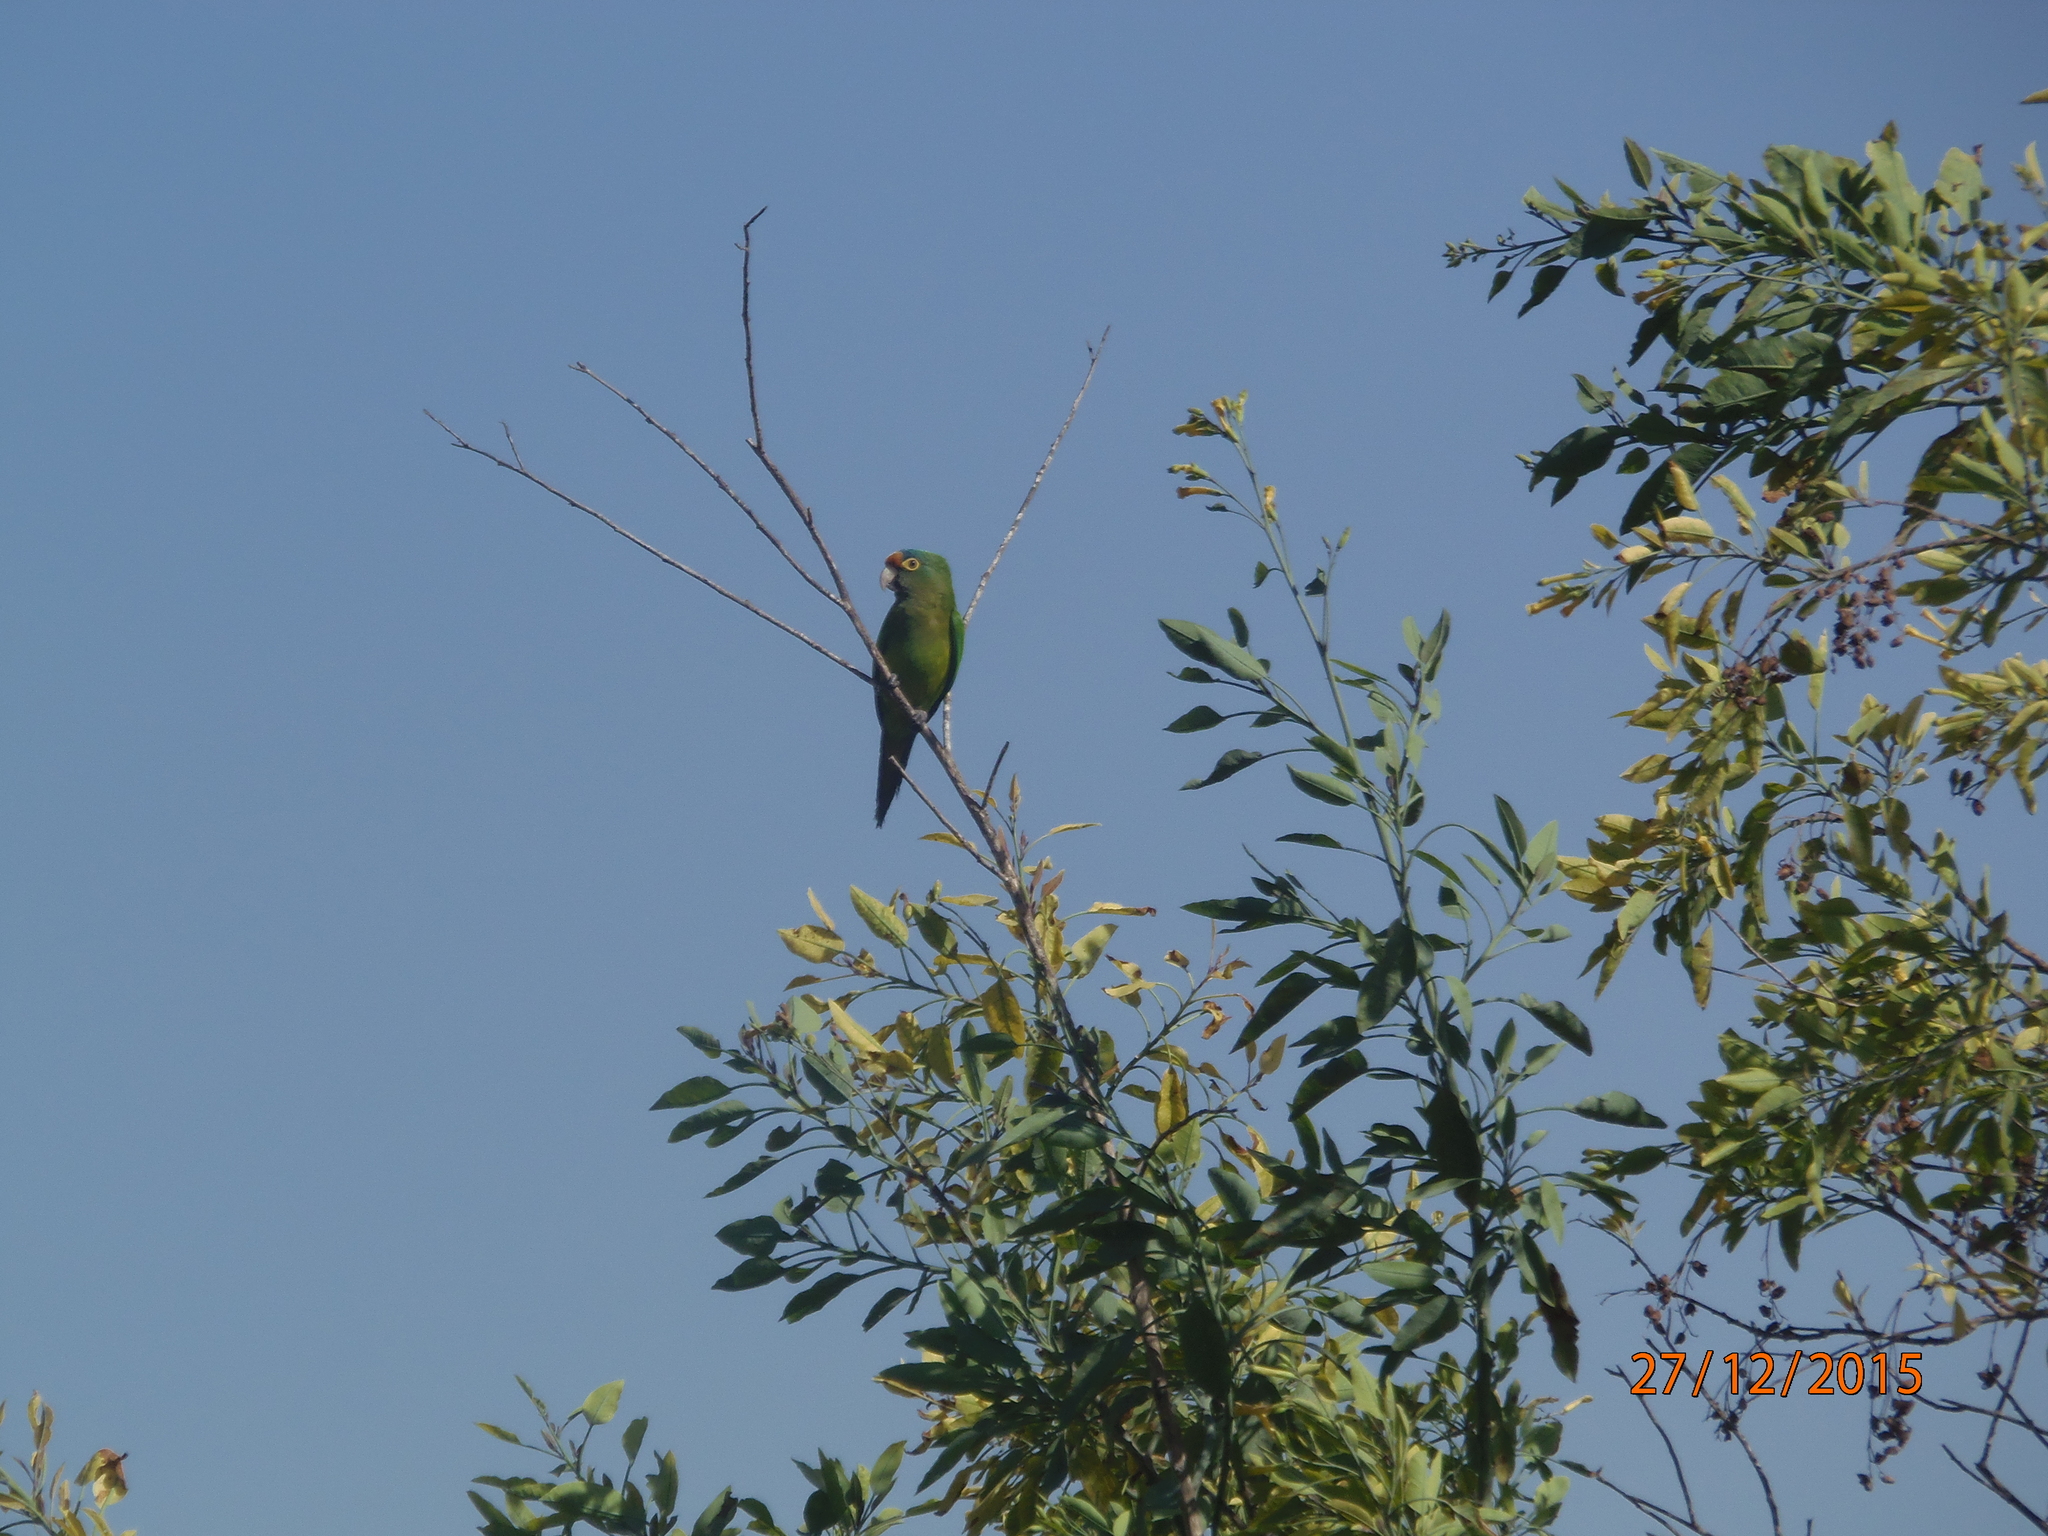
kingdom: Animalia
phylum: Chordata
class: Aves
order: Psittaciformes
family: Psittacidae
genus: Aratinga
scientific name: Aratinga canicularis
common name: Orange-fronted parakeet
